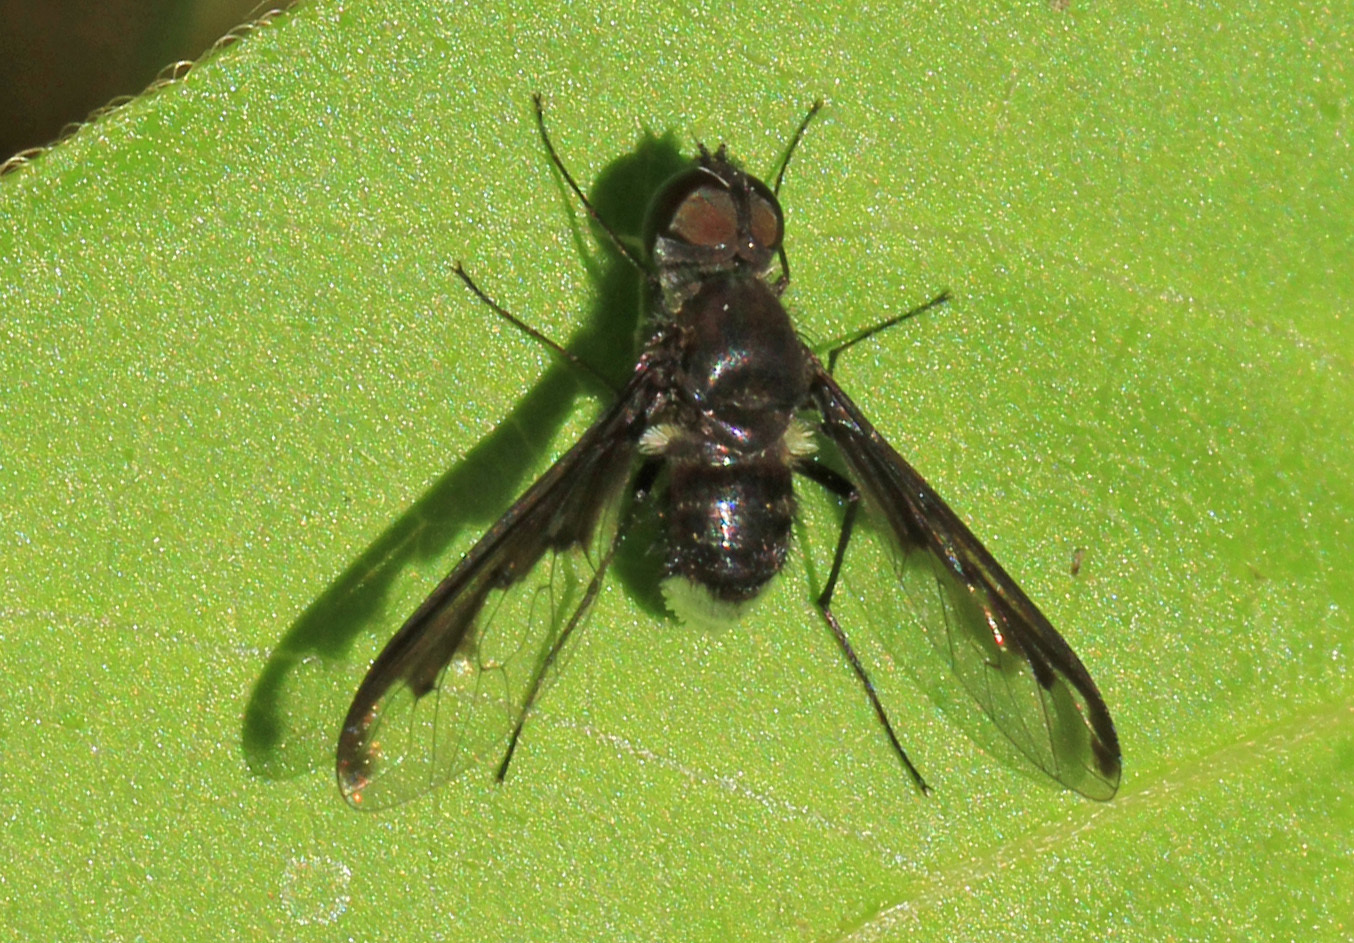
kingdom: Animalia
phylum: Arthropoda
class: Insecta
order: Diptera
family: Bombyliidae
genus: Anthrax
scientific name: Anthrax argyropygus
